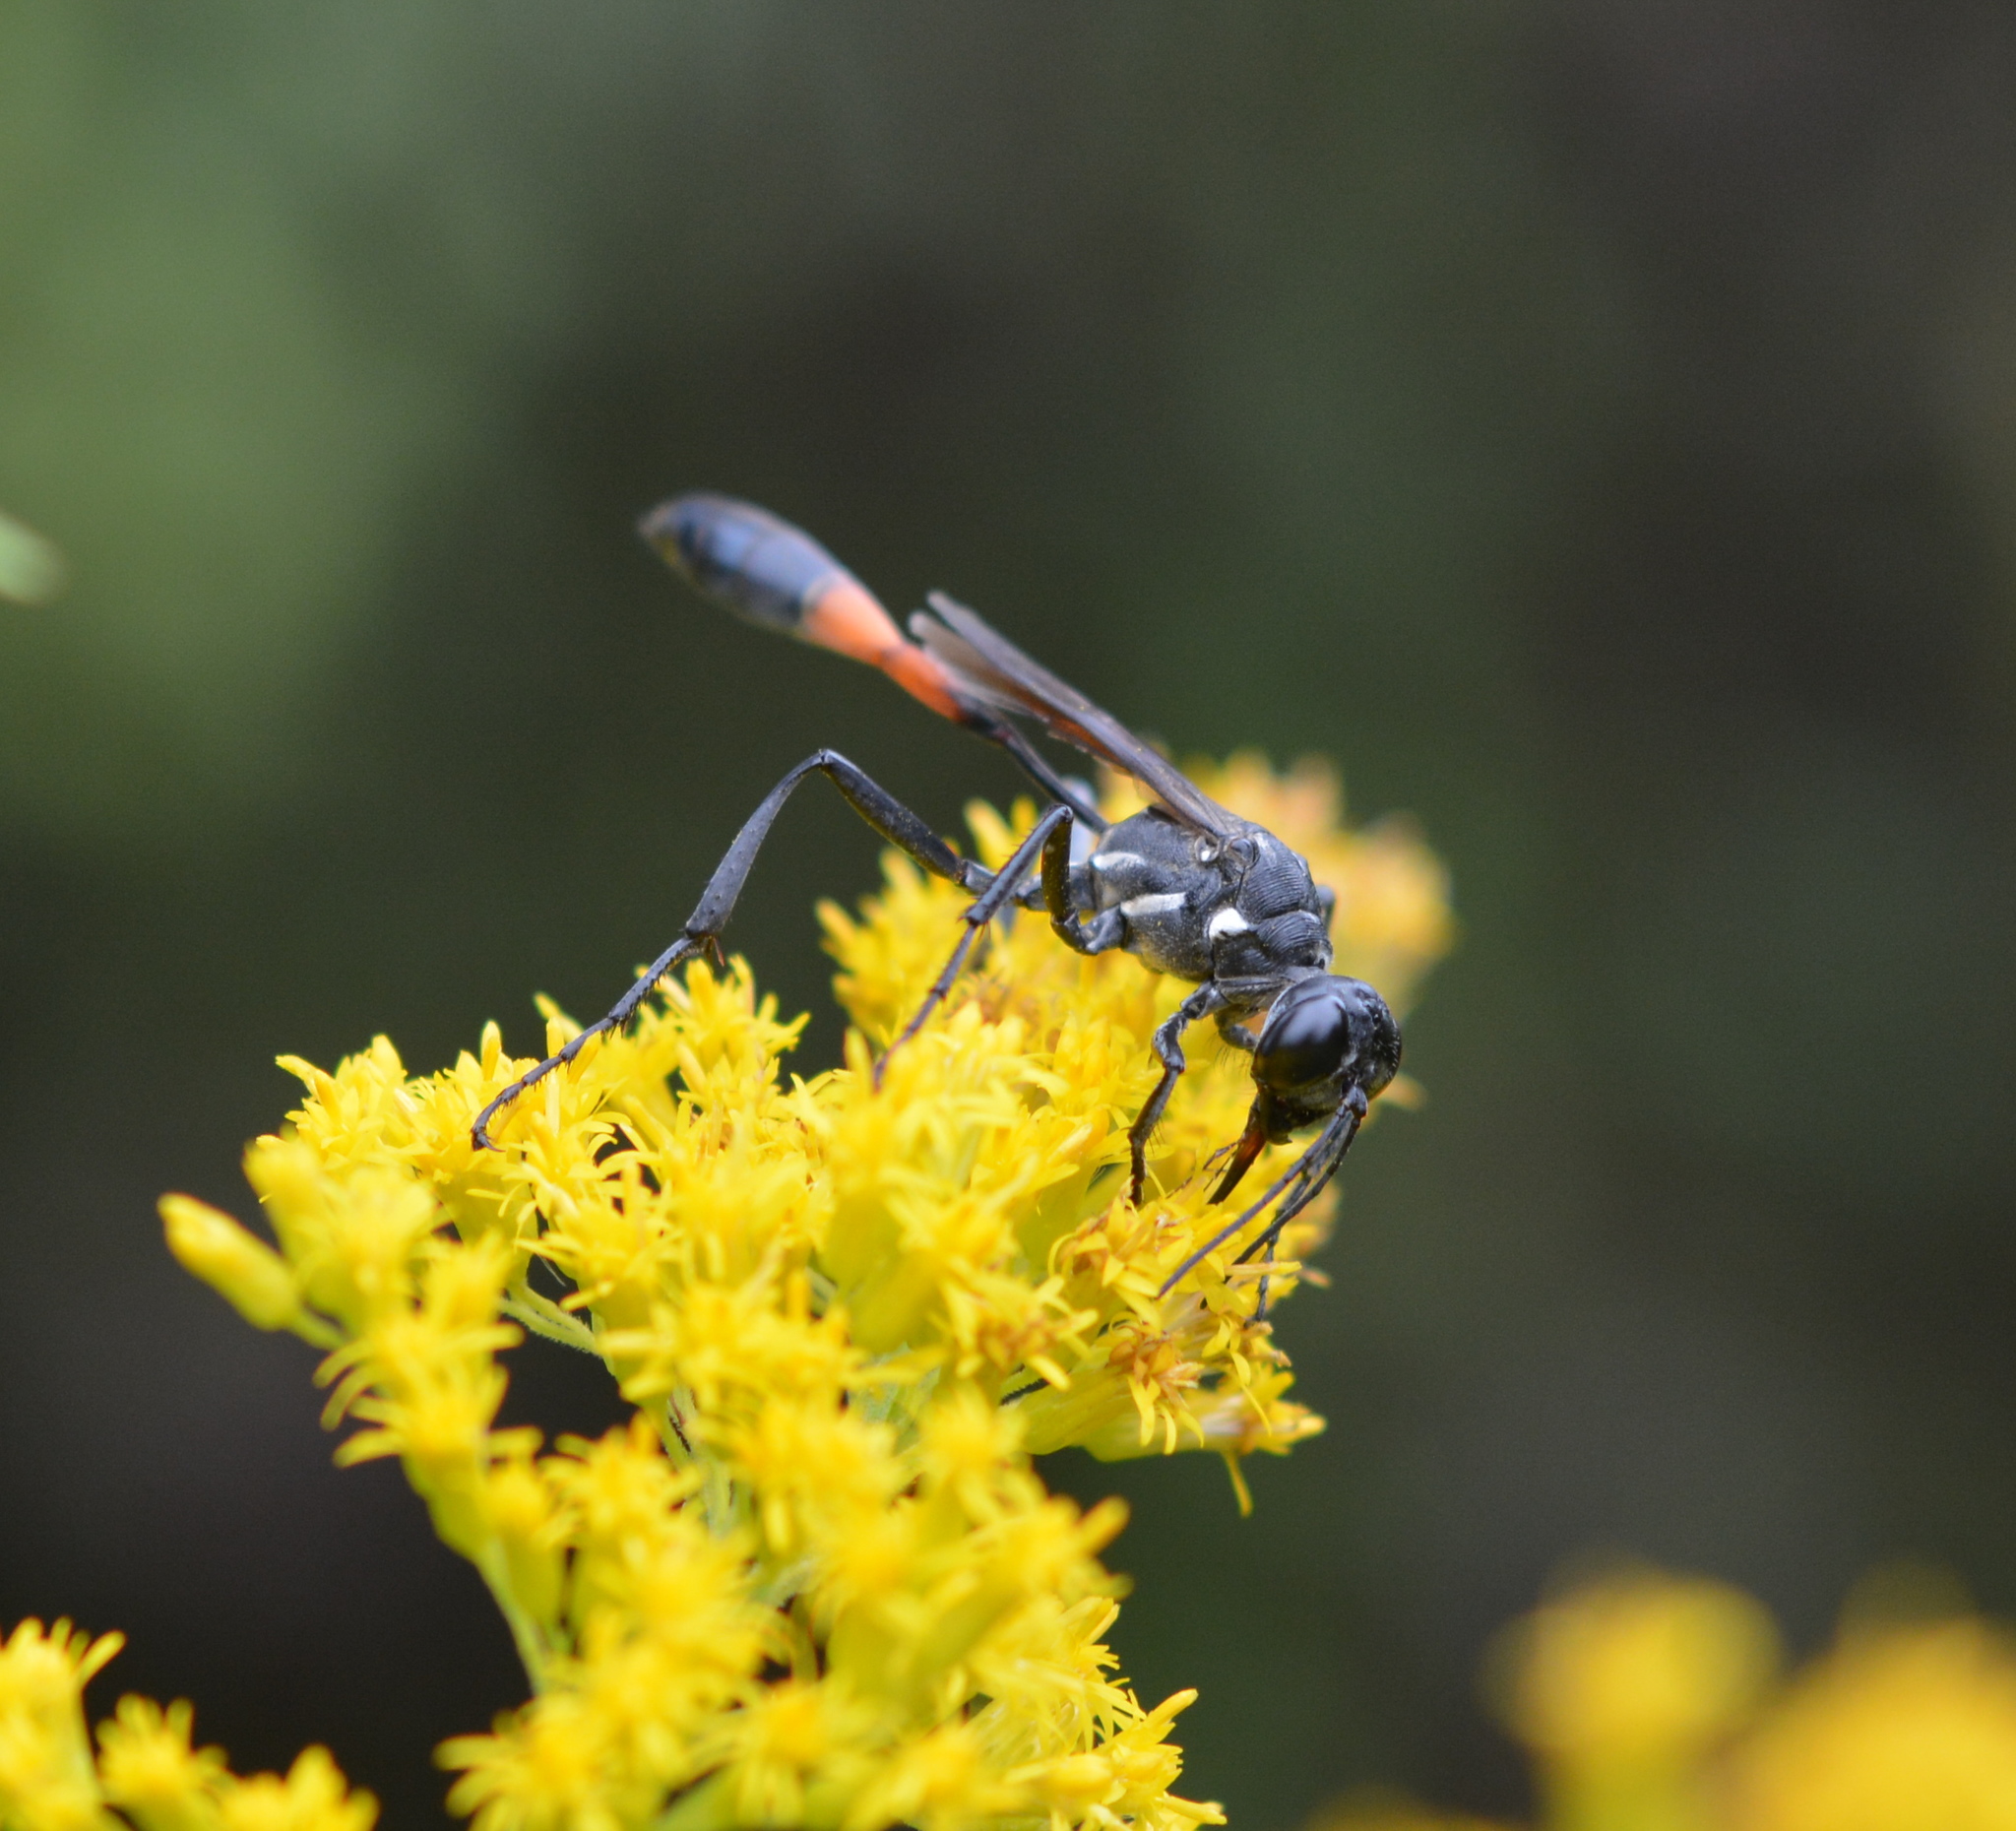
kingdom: Animalia
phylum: Arthropoda
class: Insecta
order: Hymenoptera
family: Sphecidae
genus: Ammophila
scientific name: Ammophila procera
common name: Common thread-waisted wasp
